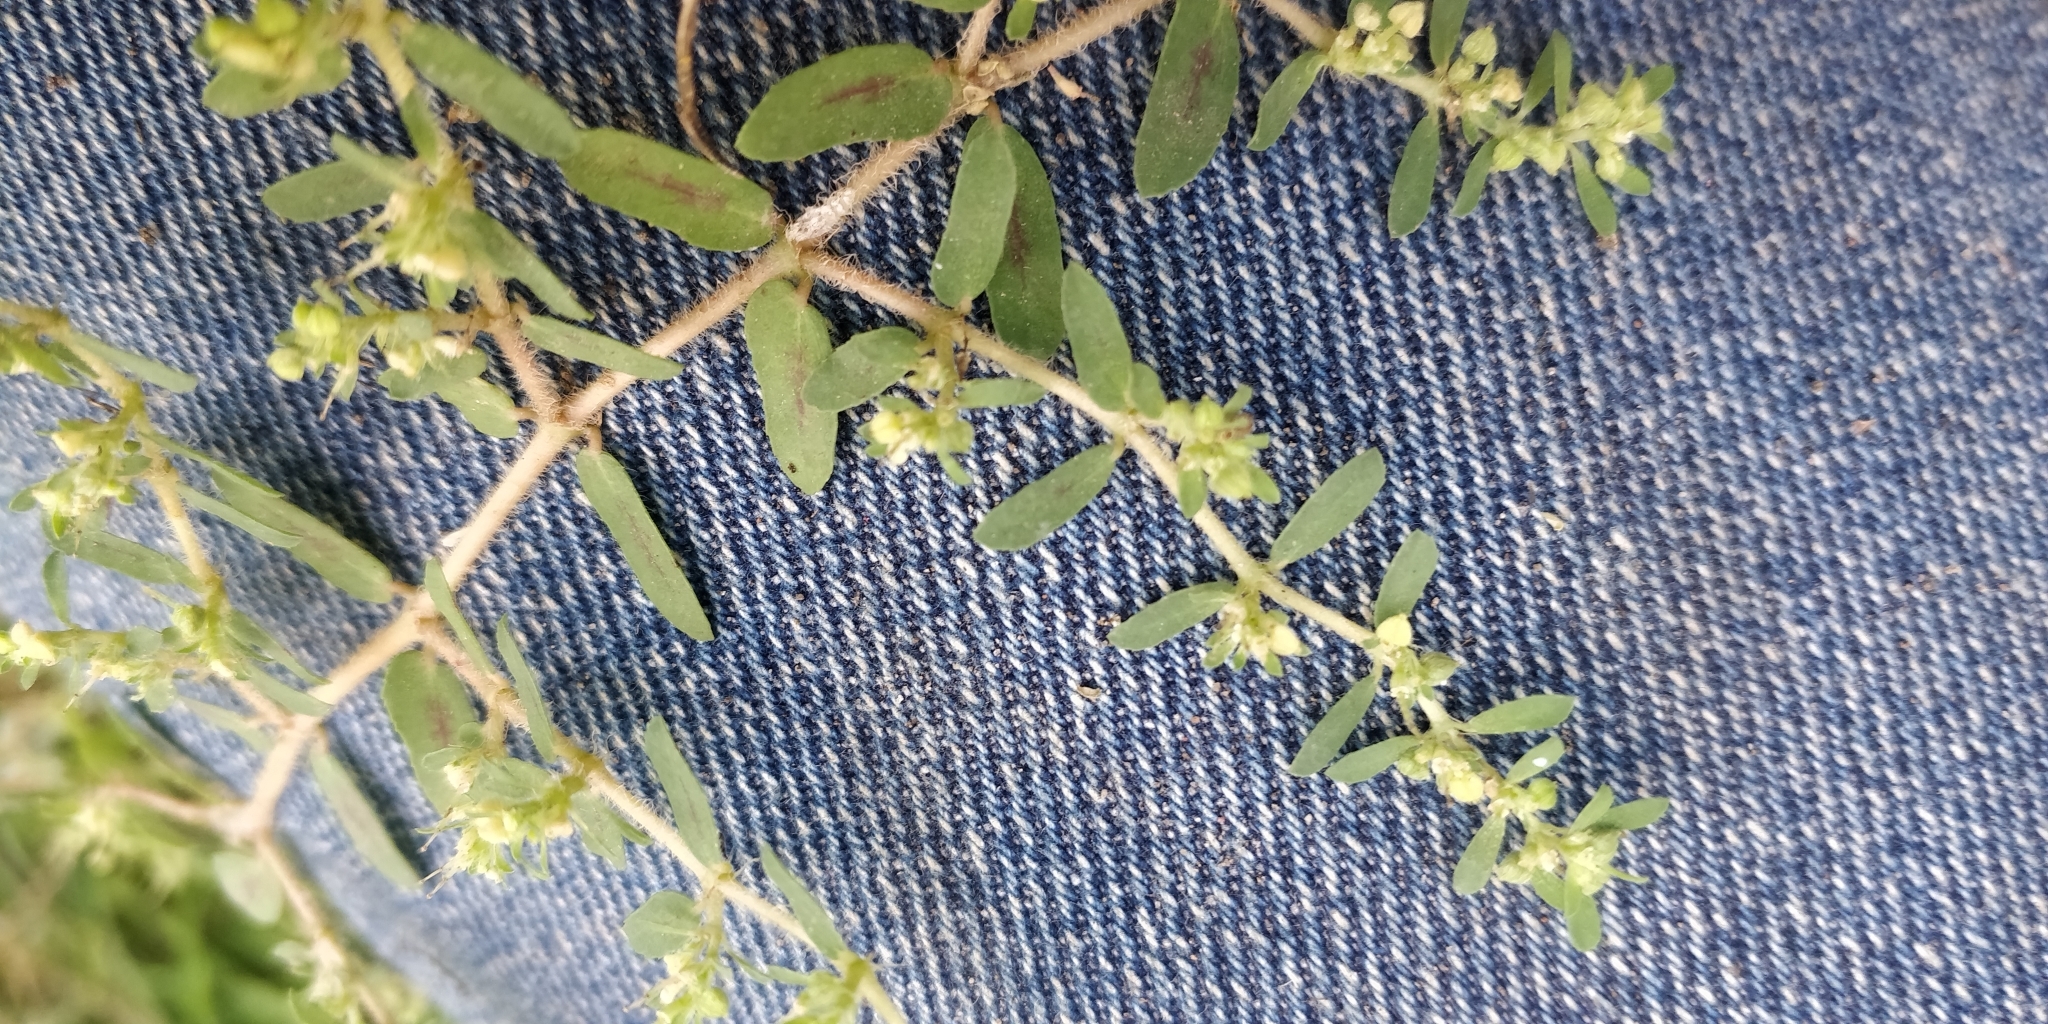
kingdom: Plantae
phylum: Tracheophyta
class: Magnoliopsida
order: Malpighiales
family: Euphorbiaceae
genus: Euphorbia
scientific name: Euphorbia maculata
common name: Spotted spurge
